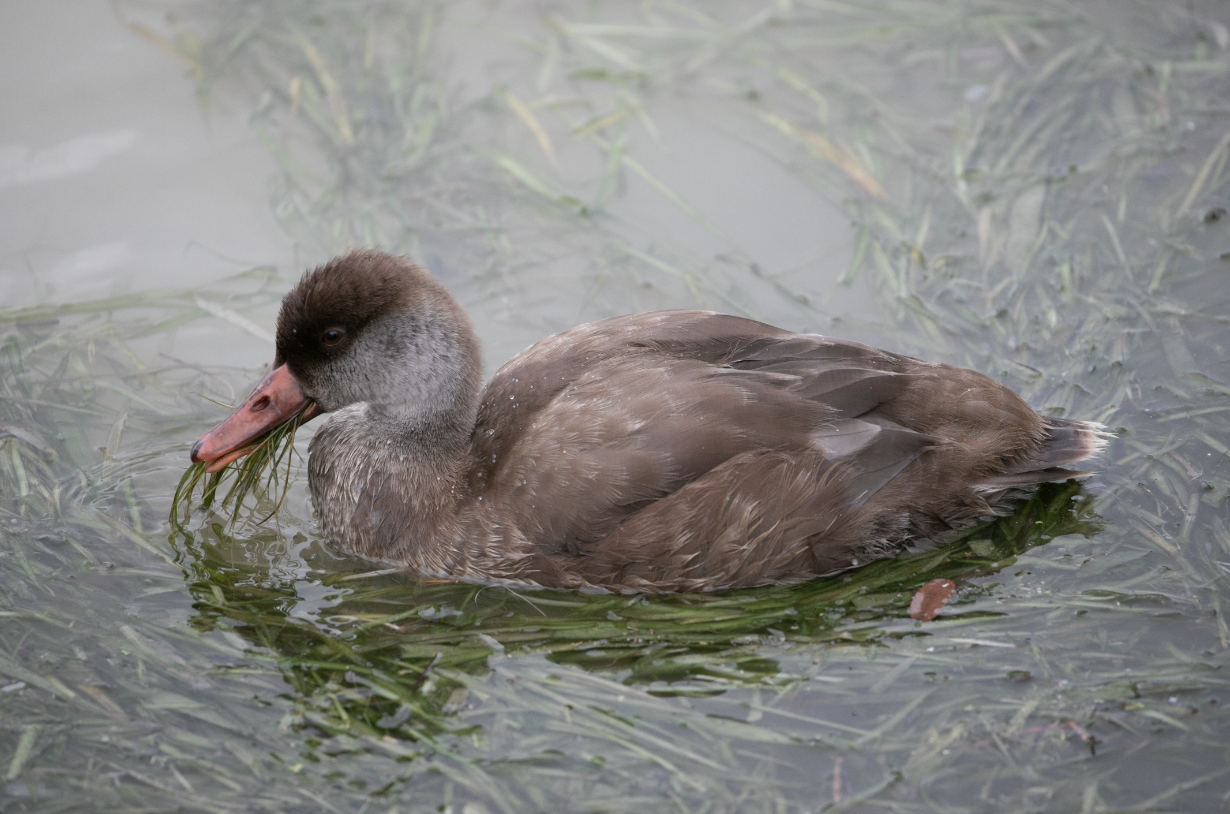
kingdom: Animalia
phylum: Chordata
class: Aves
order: Anseriformes
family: Anatidae
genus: Netta
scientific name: Netta rufina
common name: Red-crested pochard
